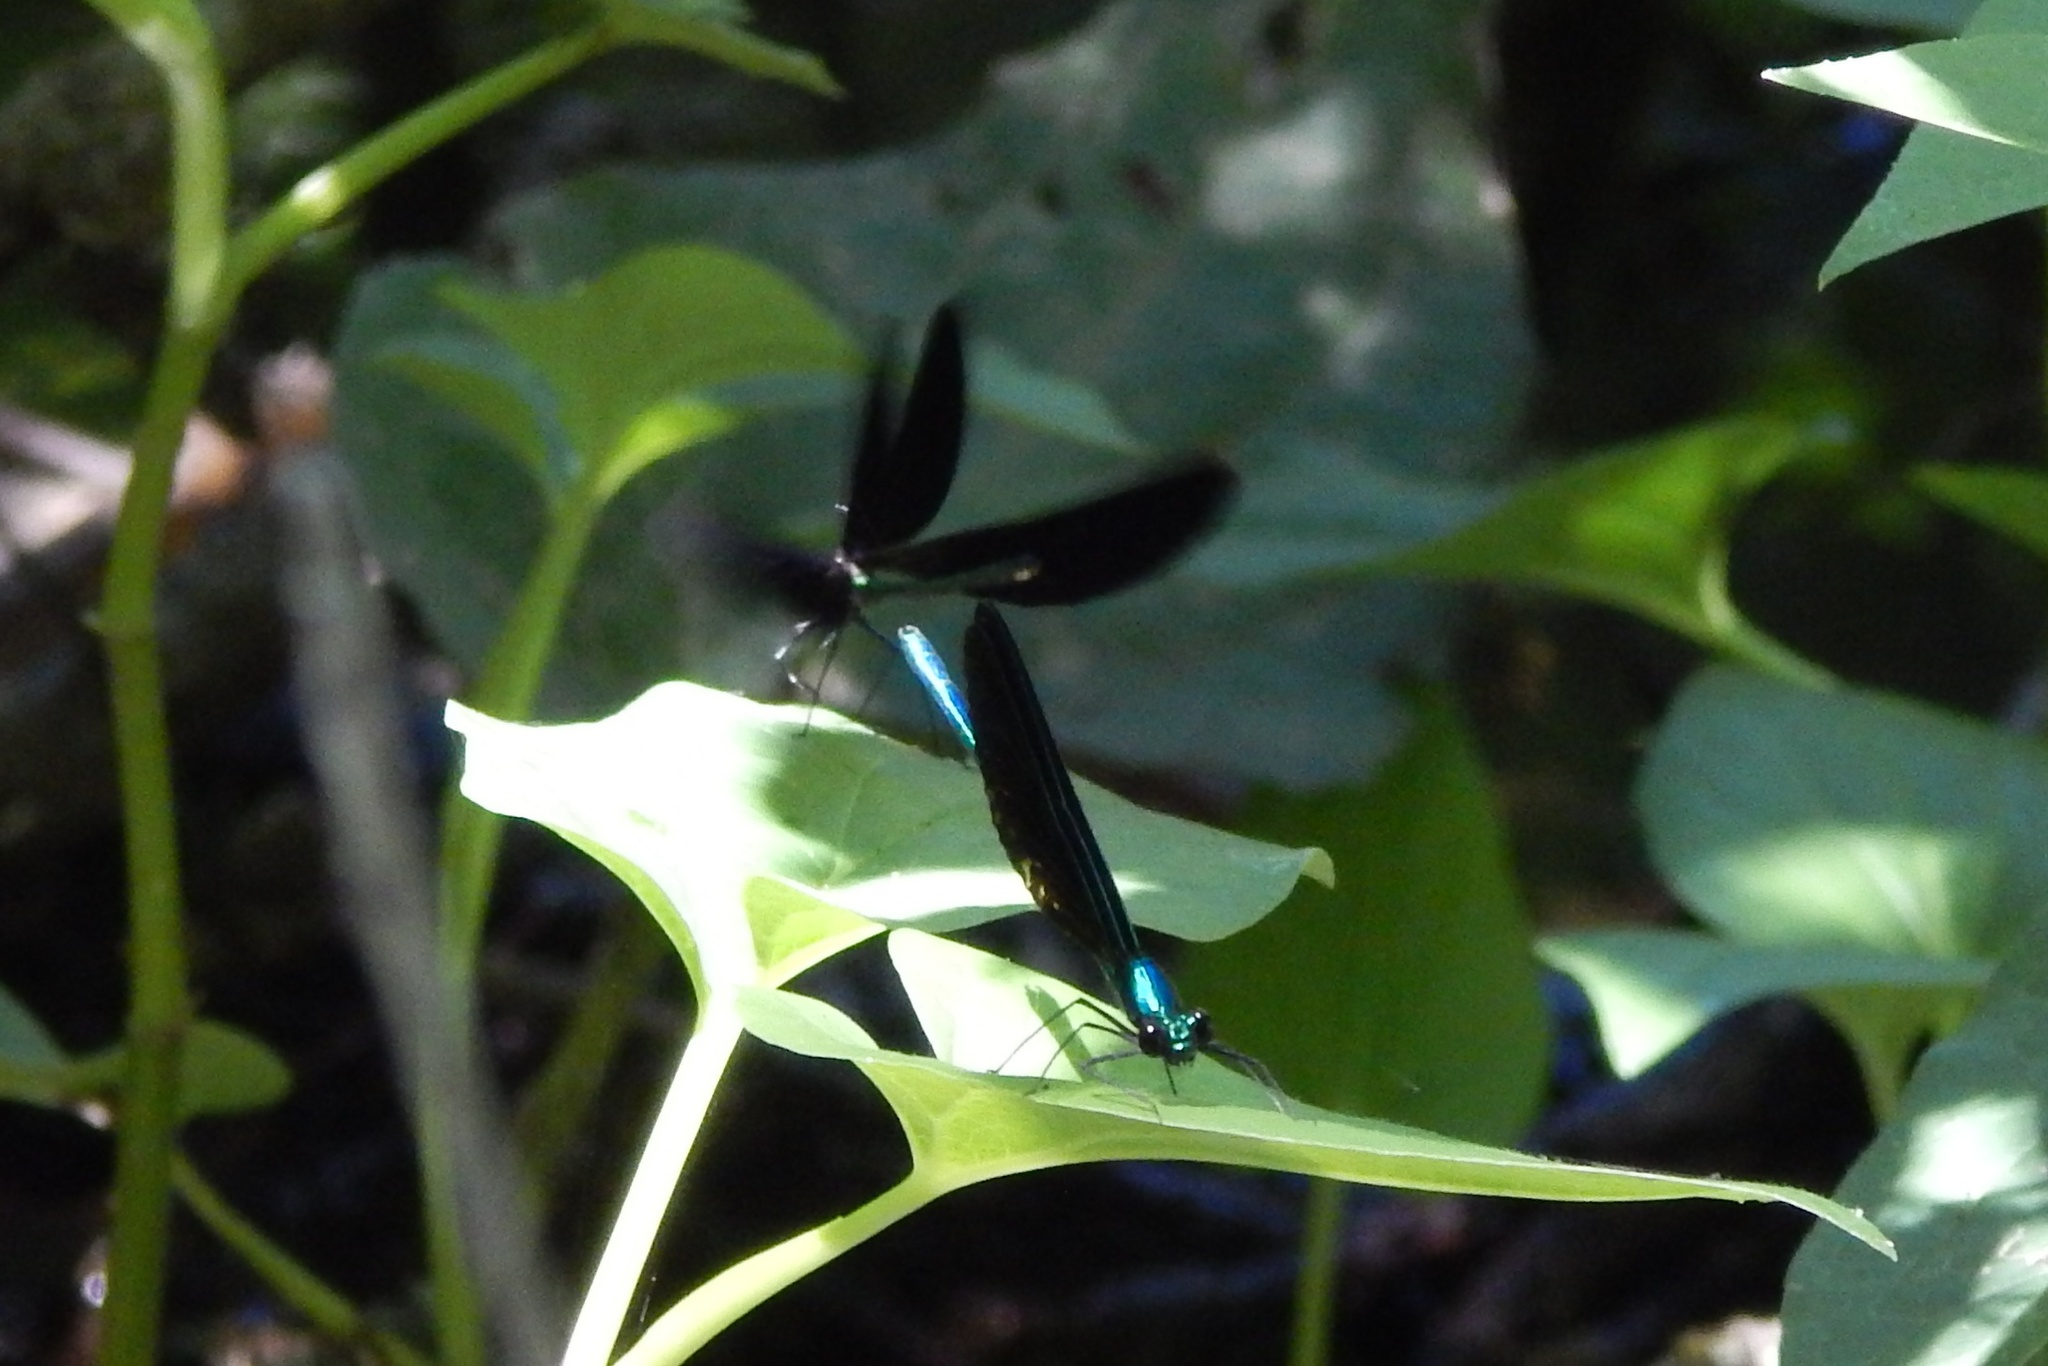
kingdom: Animalia
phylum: Arthropoda
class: Insecta
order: Odonata
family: Calopterygidae
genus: Calopteryx
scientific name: Calopteryx maculata
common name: Ebony jewelwing
